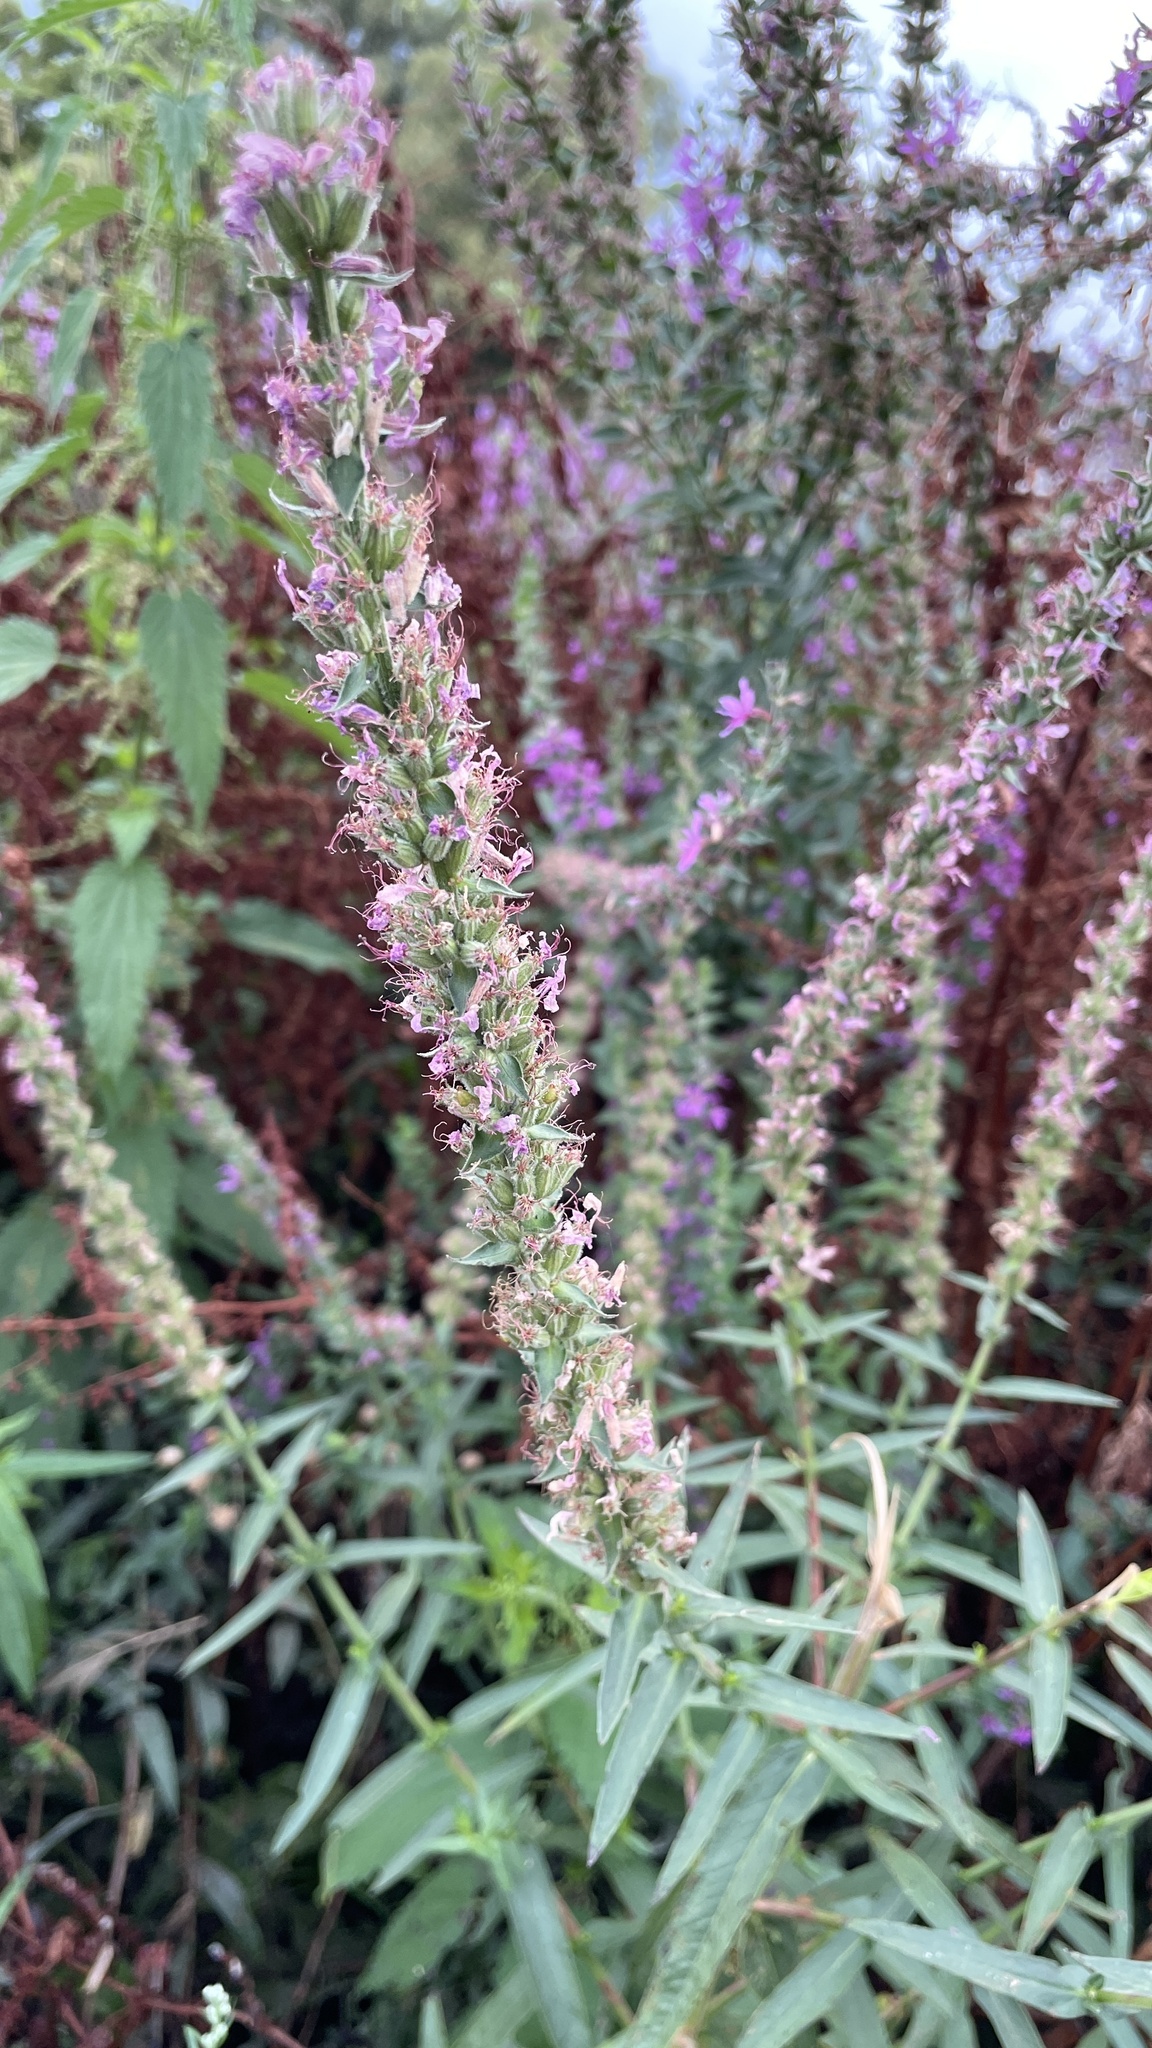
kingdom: Plantae
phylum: Tracheophyta
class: Magnoliopsida
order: Myrtales
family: Lythraceae
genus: Lythrum
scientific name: Lythrum salicaria
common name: Purple loosestrife
